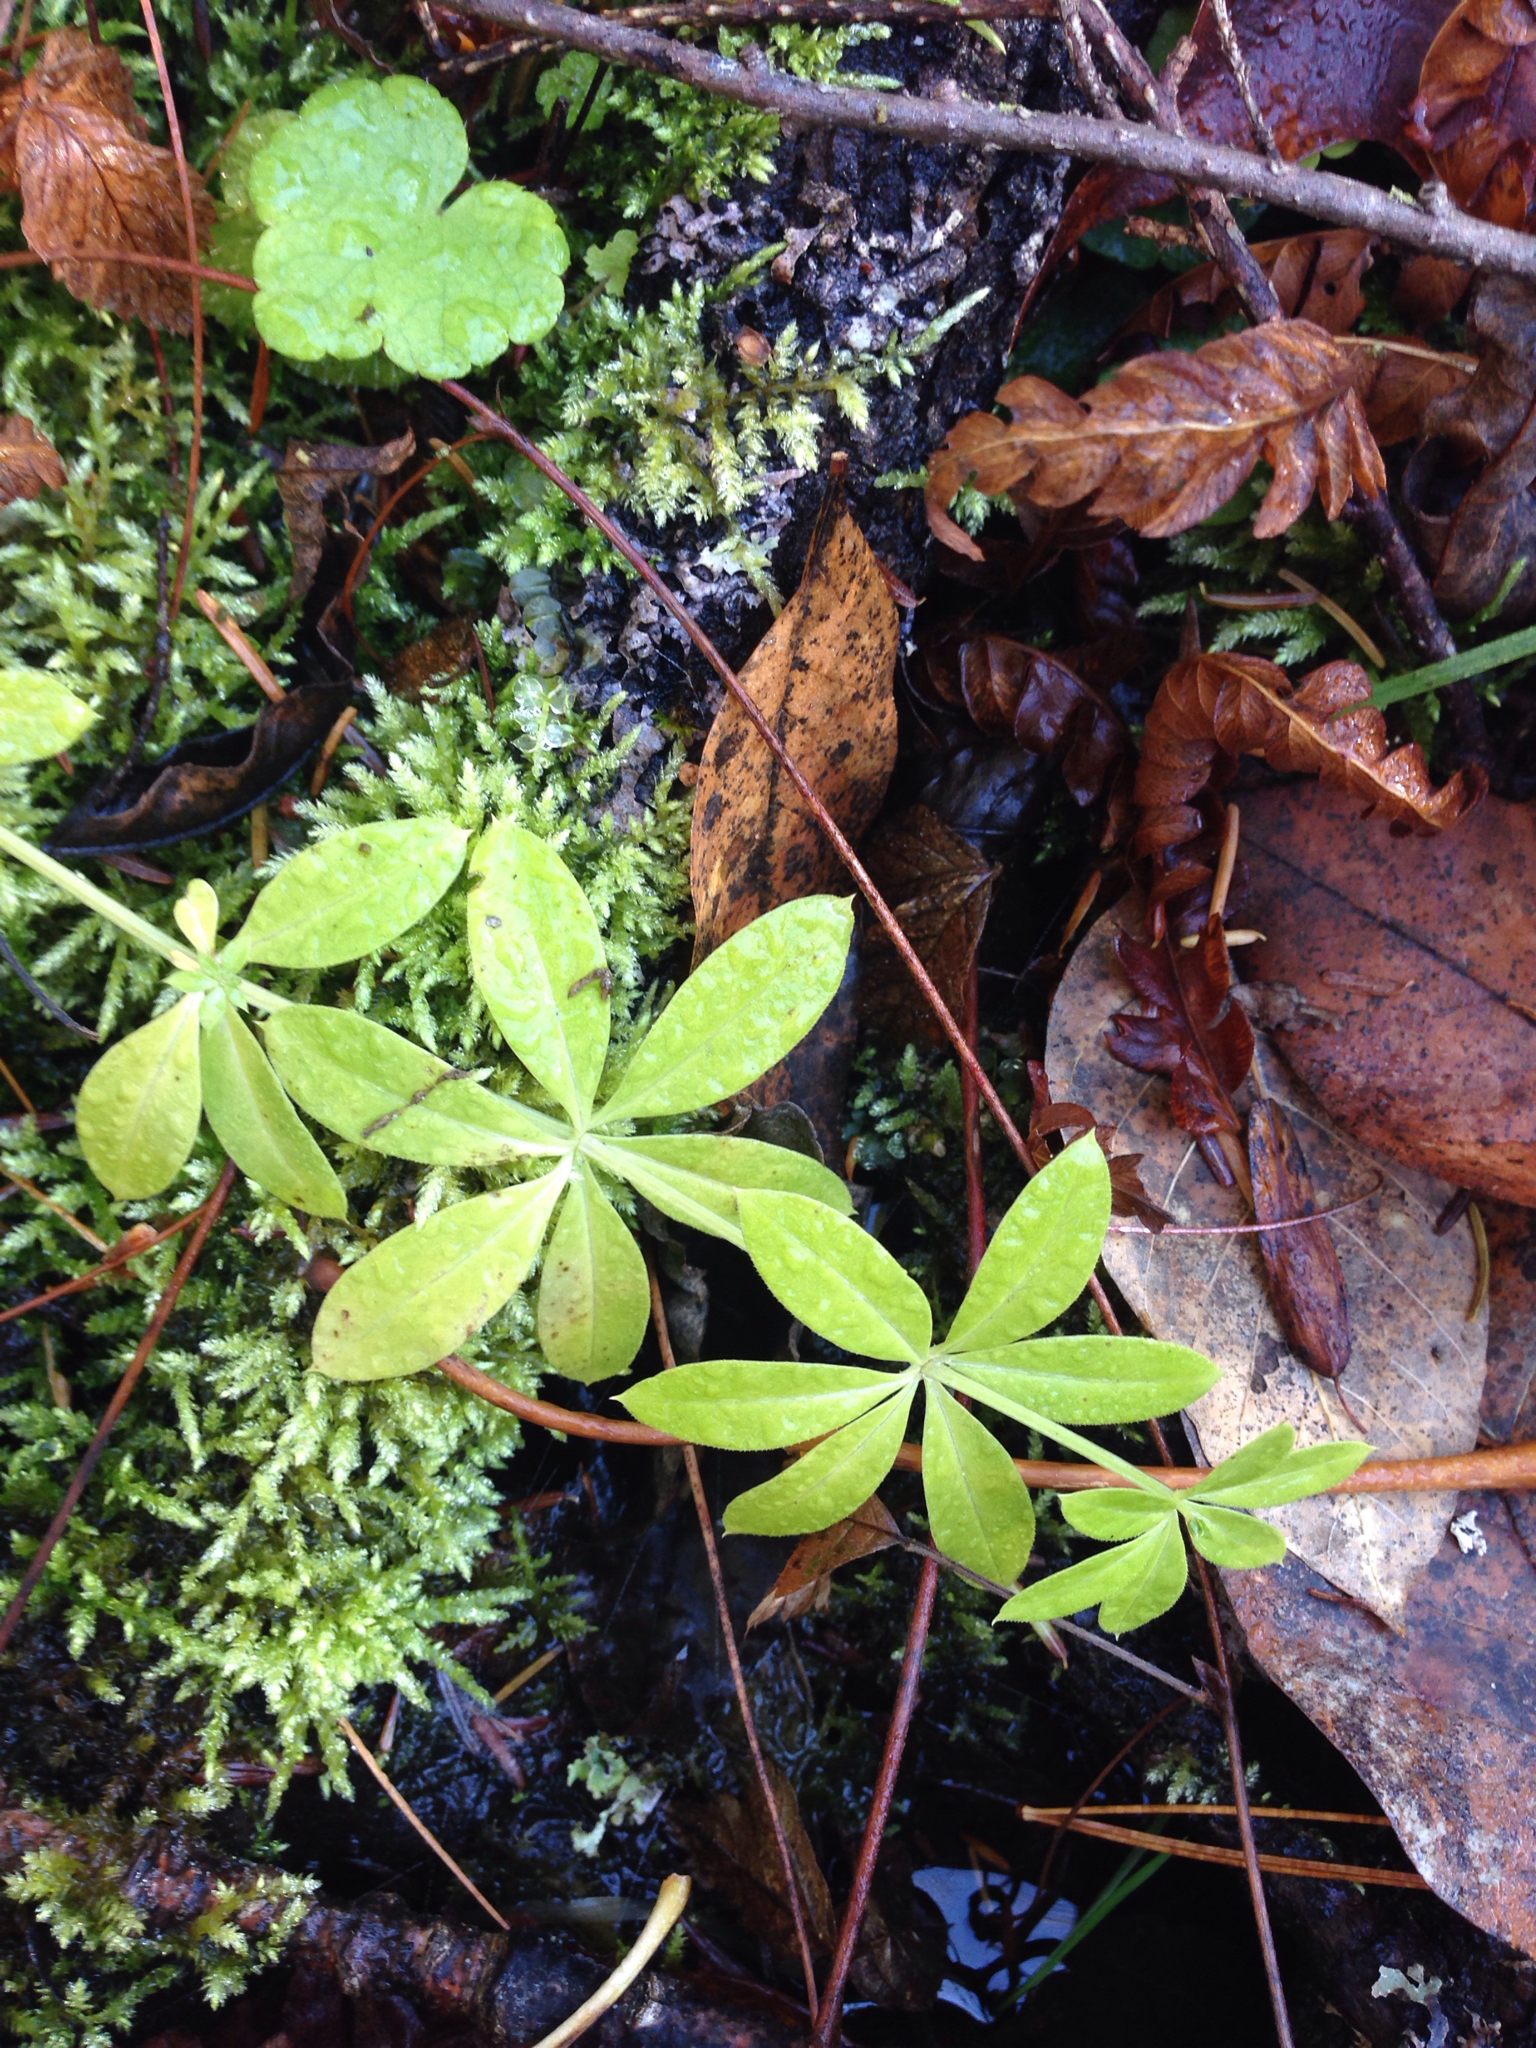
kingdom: Plantae
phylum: Tracheophyta
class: Magnoliopsida
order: Gentianales
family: Rubiaceae
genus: Galium
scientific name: Galium triflorum
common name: Fragrant bedstraw
